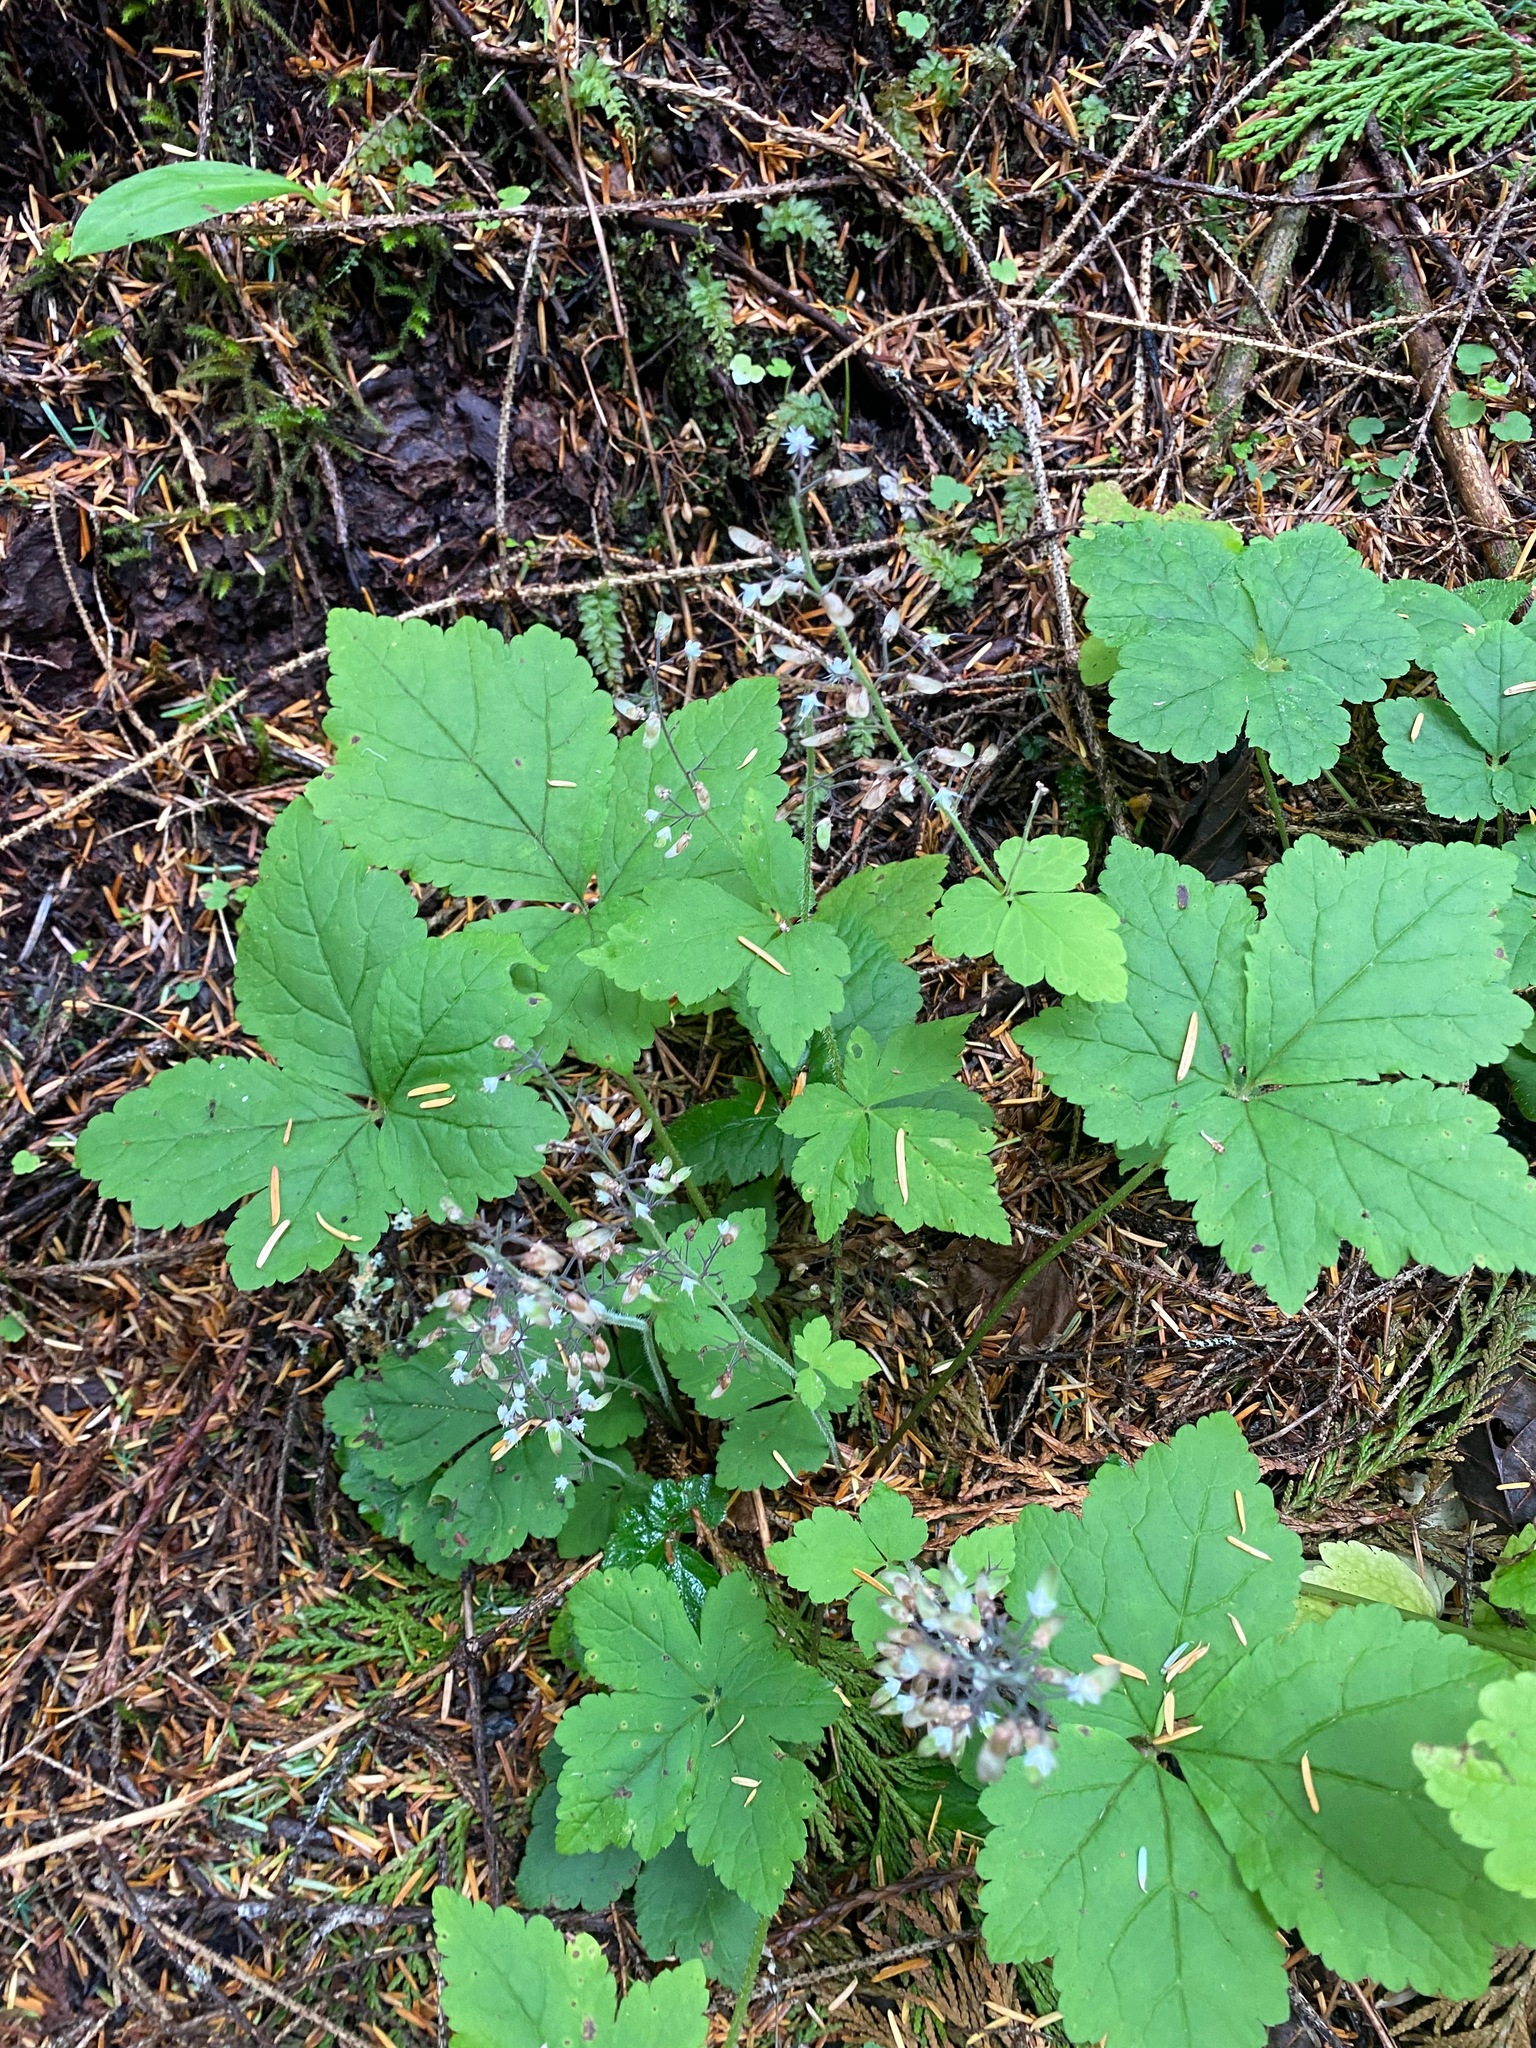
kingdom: Plantae
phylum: Tracheophyta
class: Magnoliopsida
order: Saxifragales
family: Saxifragaceae
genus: Tiarella
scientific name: Tiarella trifoliata
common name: Sugar-scoop
